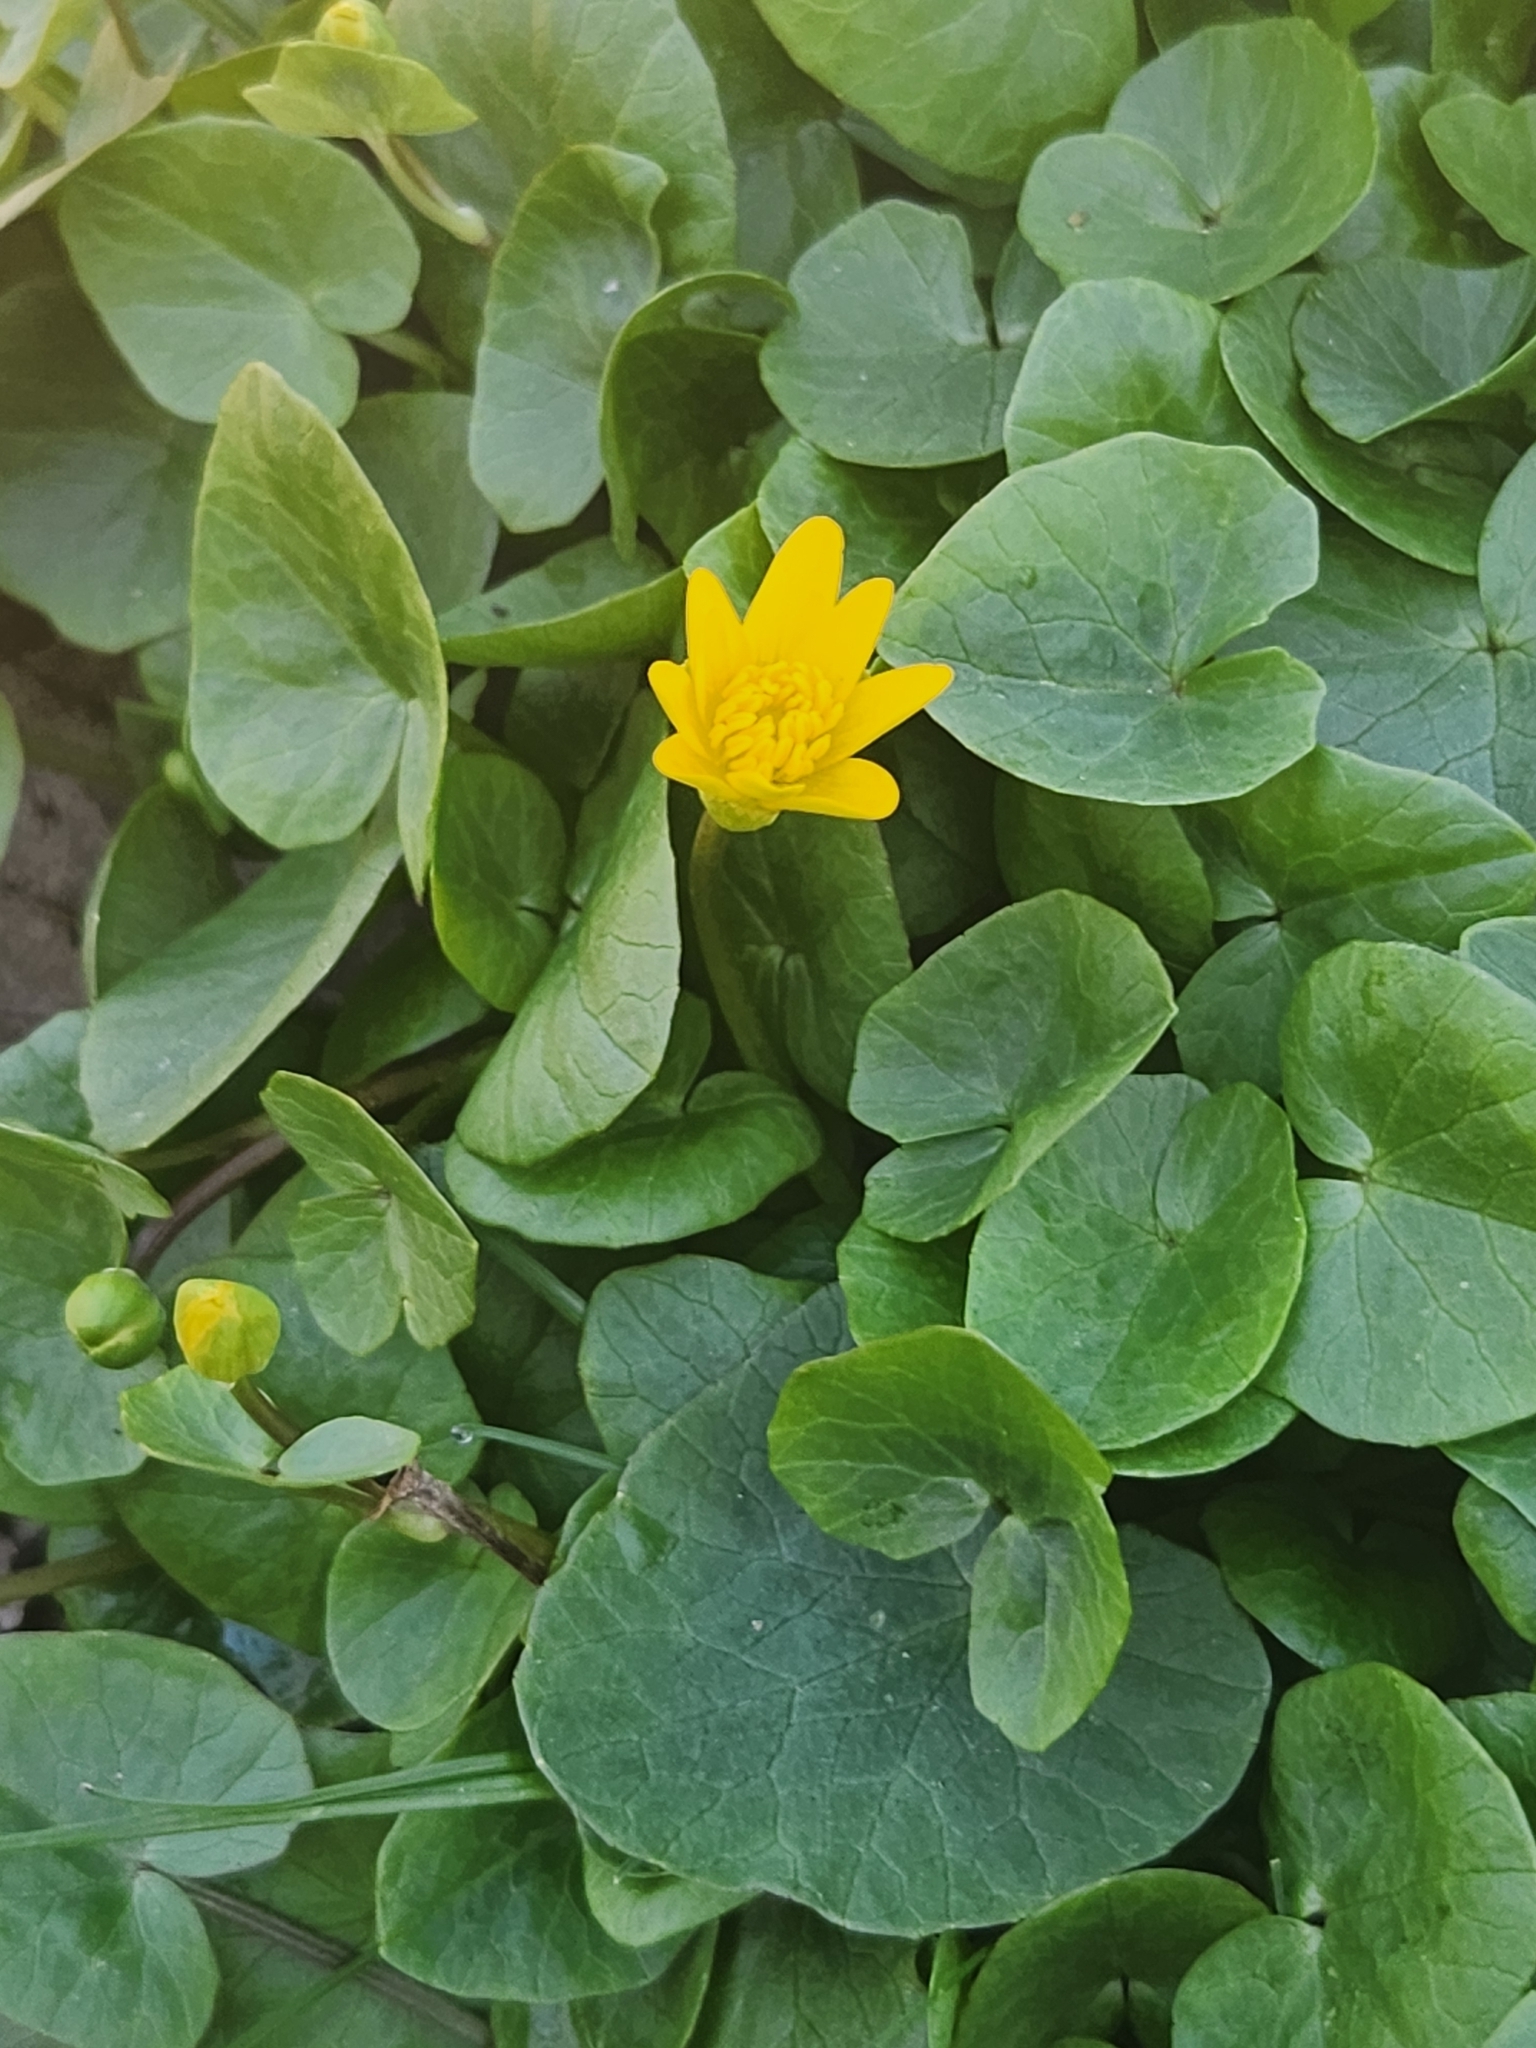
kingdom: Plantae
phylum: Tracheophyta
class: Magnoliopsida
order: Ranunculales
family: Ranunculaceae
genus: Ficaria
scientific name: Ficaria verna
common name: Lesser celandine
